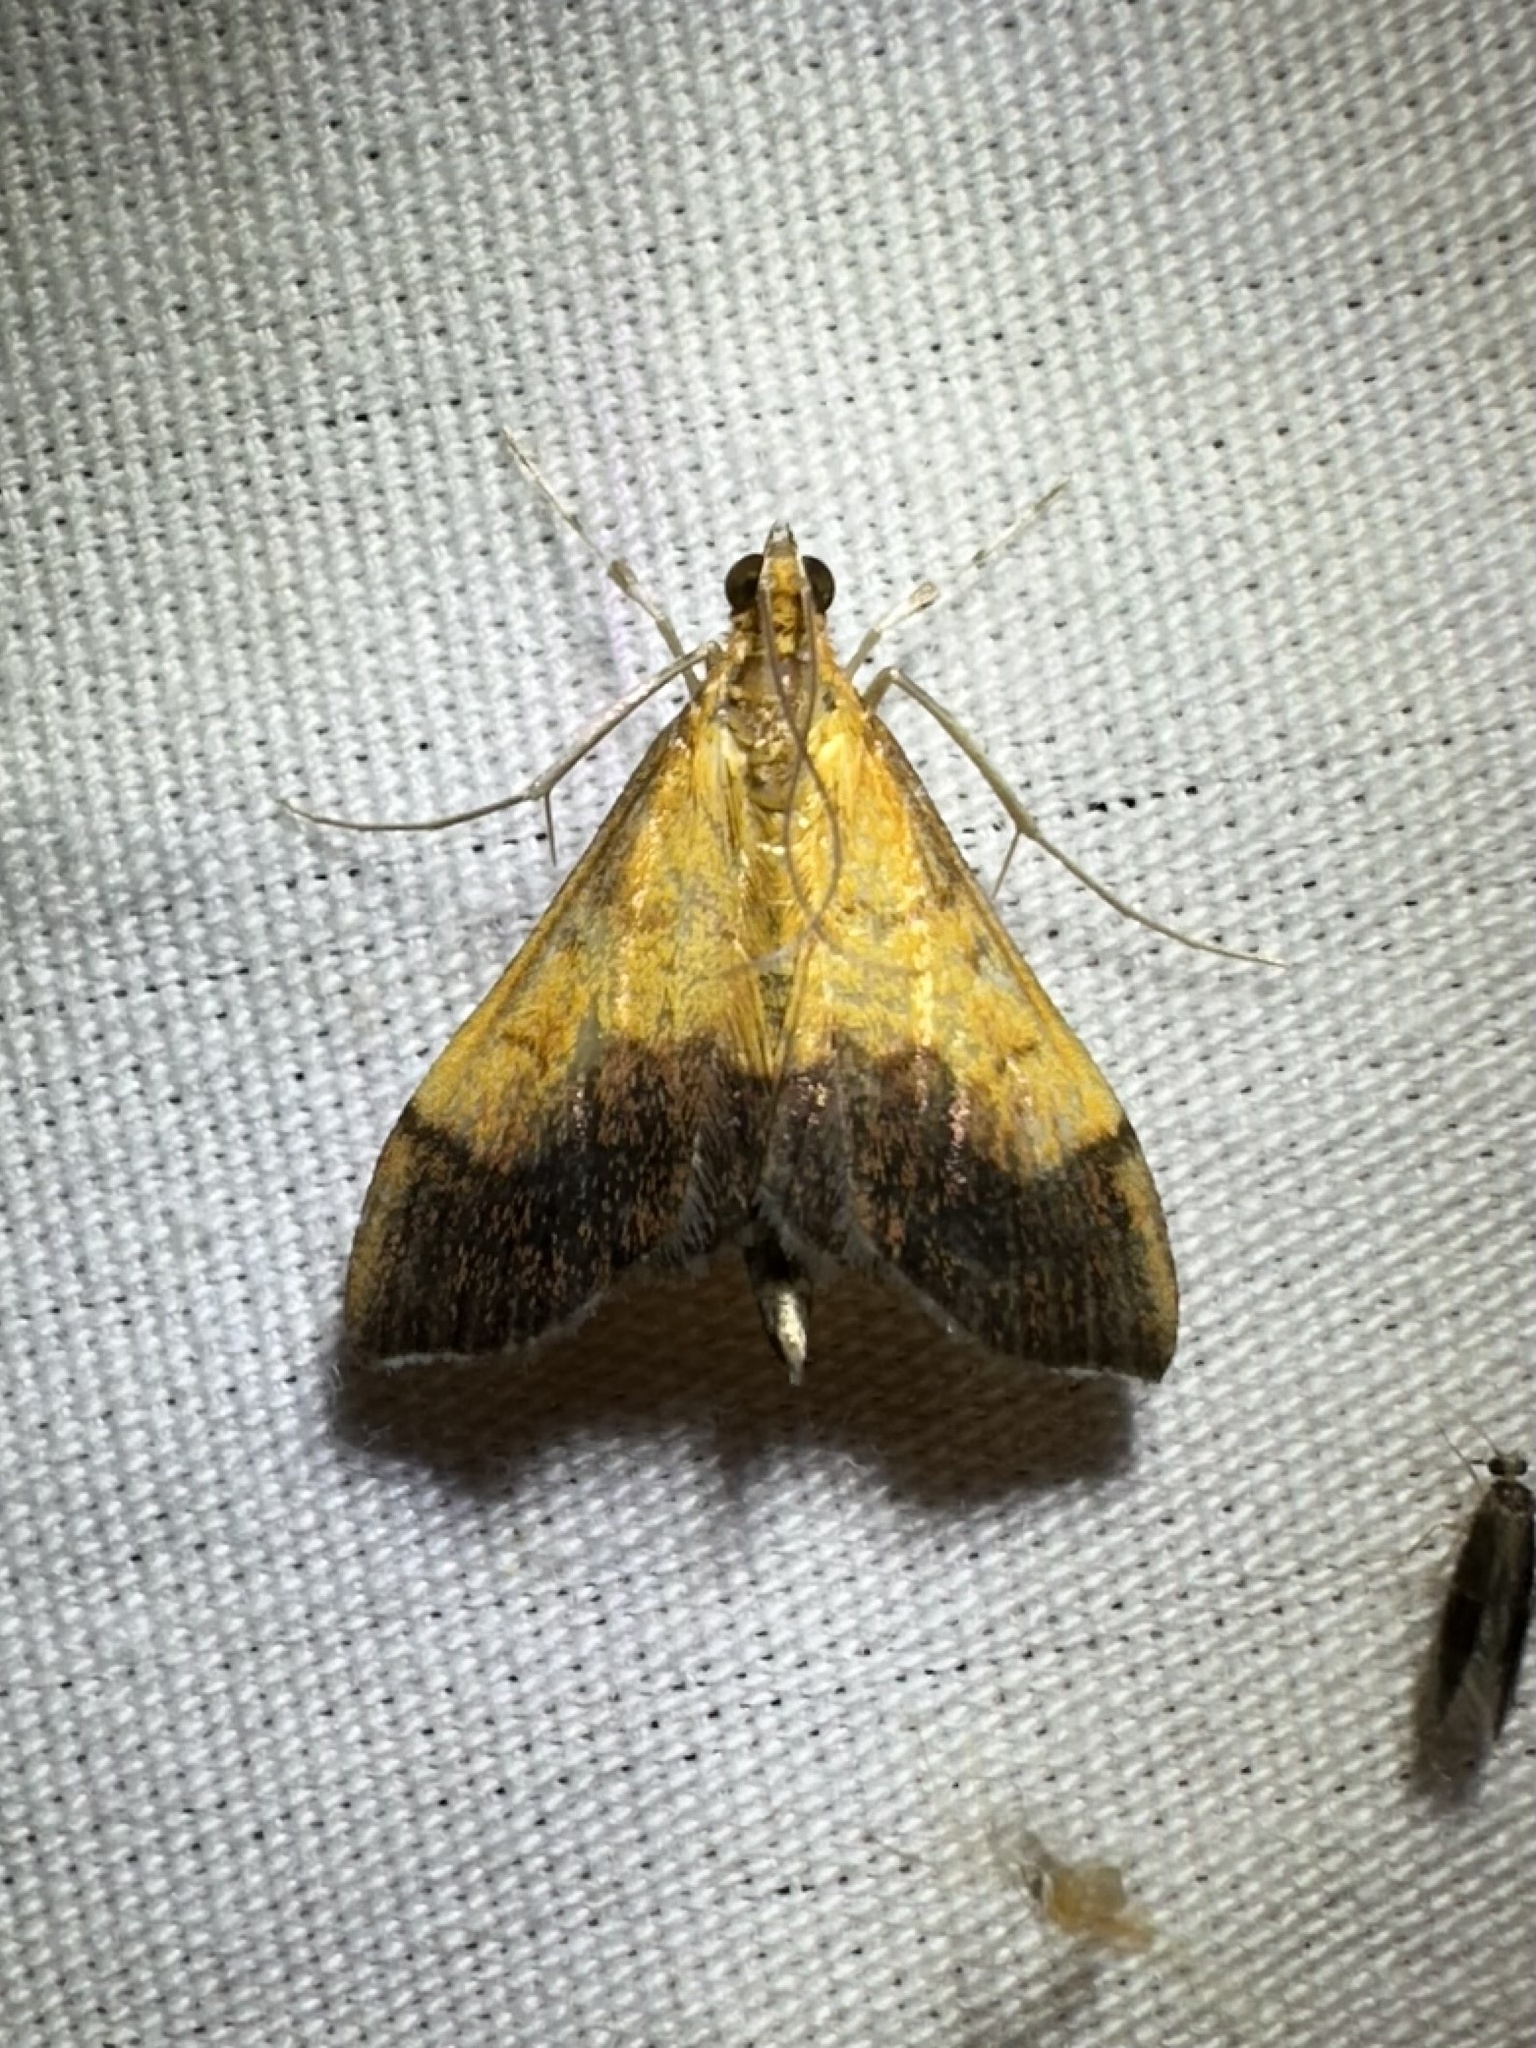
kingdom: Animalia
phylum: Arthropoda
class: Insecta
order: Lepidoptera
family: Crambidae
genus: Pyrausta
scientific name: Pyrausta bicoloralis
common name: Bicolored pyrausta moth
